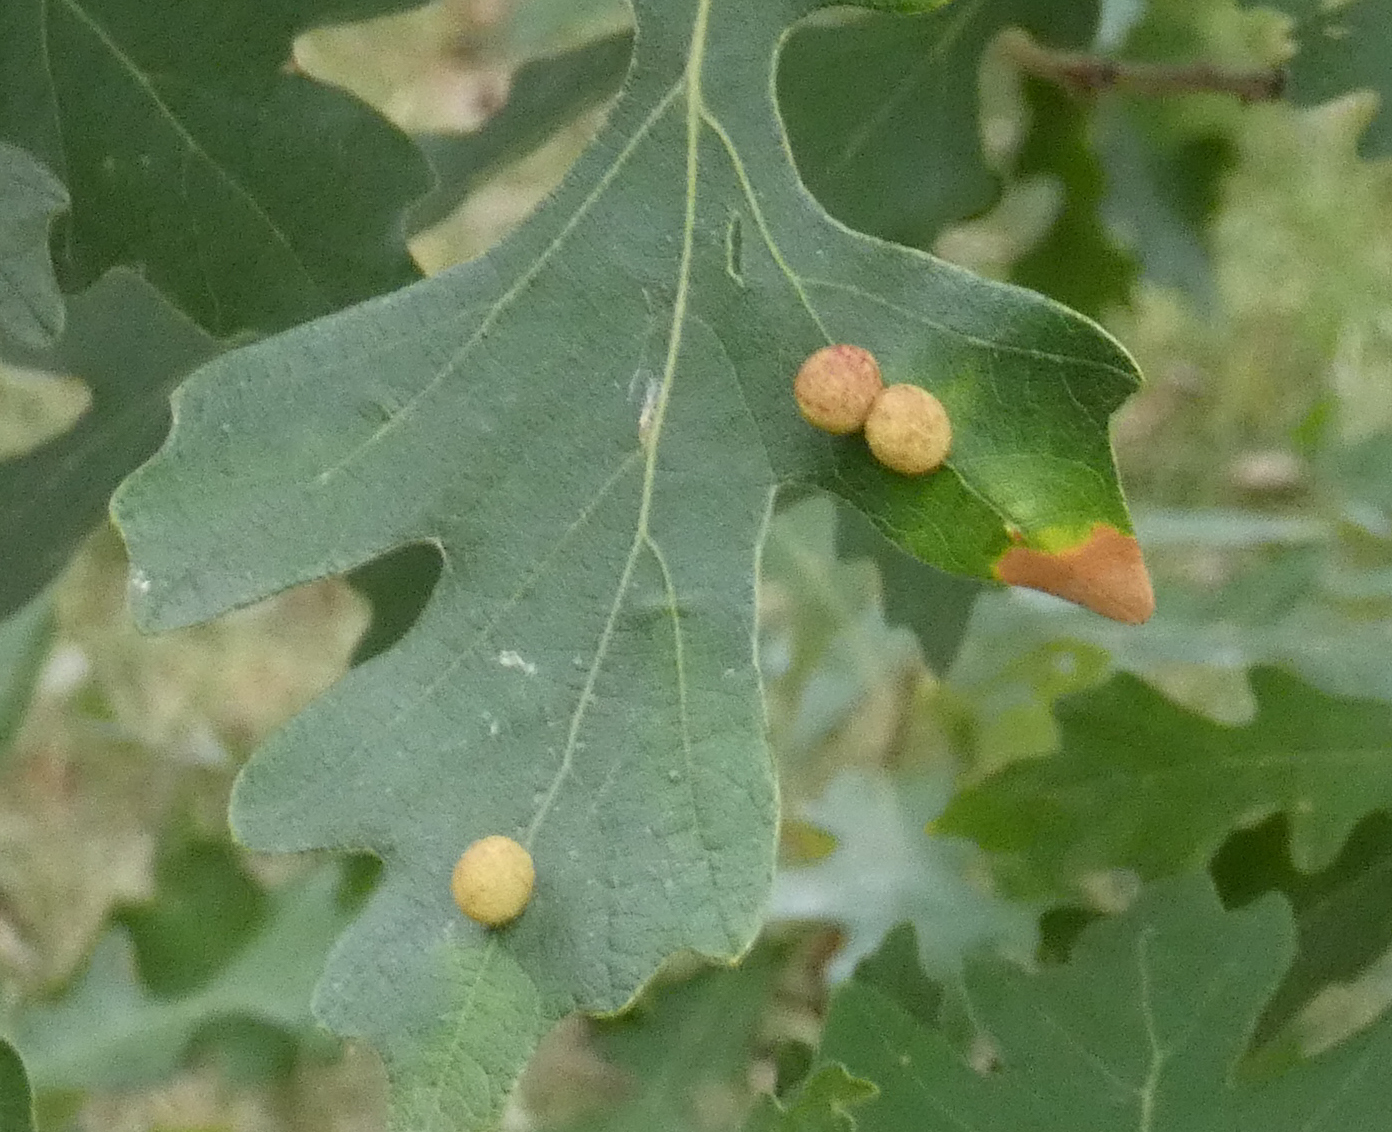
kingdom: Animalia
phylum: Arthropoda
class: Insecta
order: Hymenoptera
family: Cynipidae
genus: Acraspis
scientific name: Acraspis quercushirta
